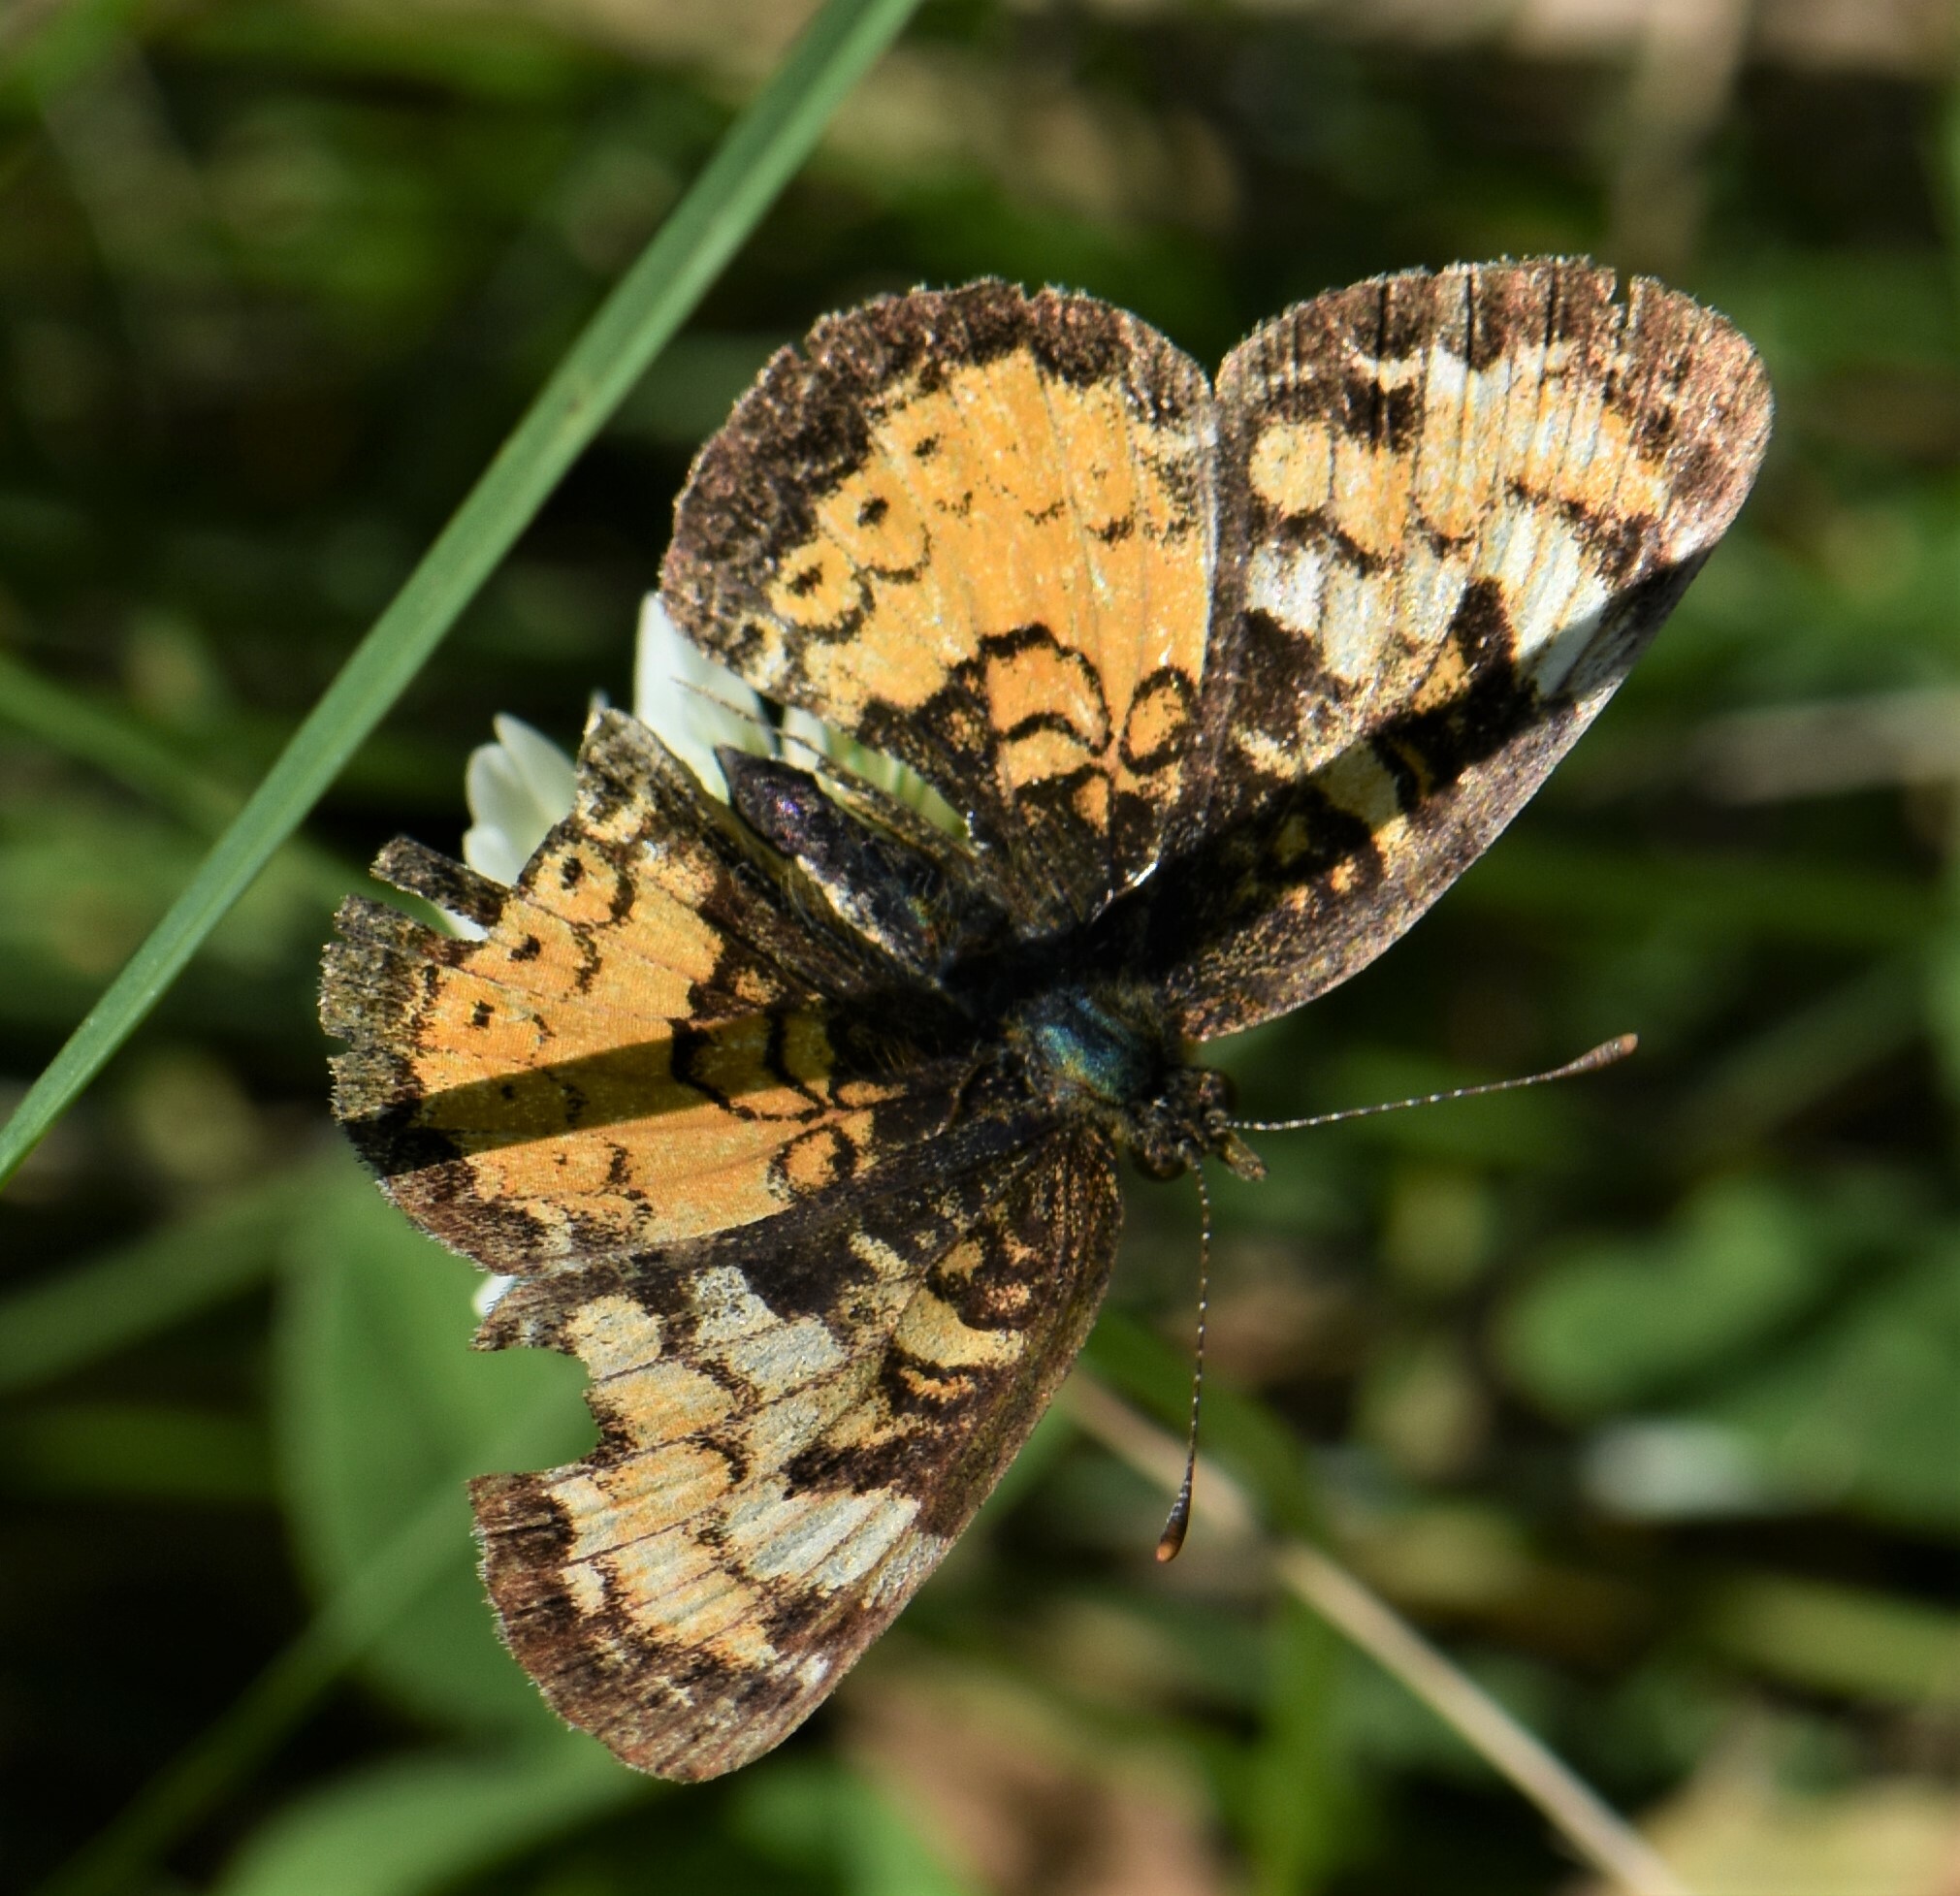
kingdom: Animalia
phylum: Arthropoda
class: Insecta
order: Lepidoptera
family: Nymphalidae
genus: Phyciodes
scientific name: Phyciodes tharos
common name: Pearl crescent
